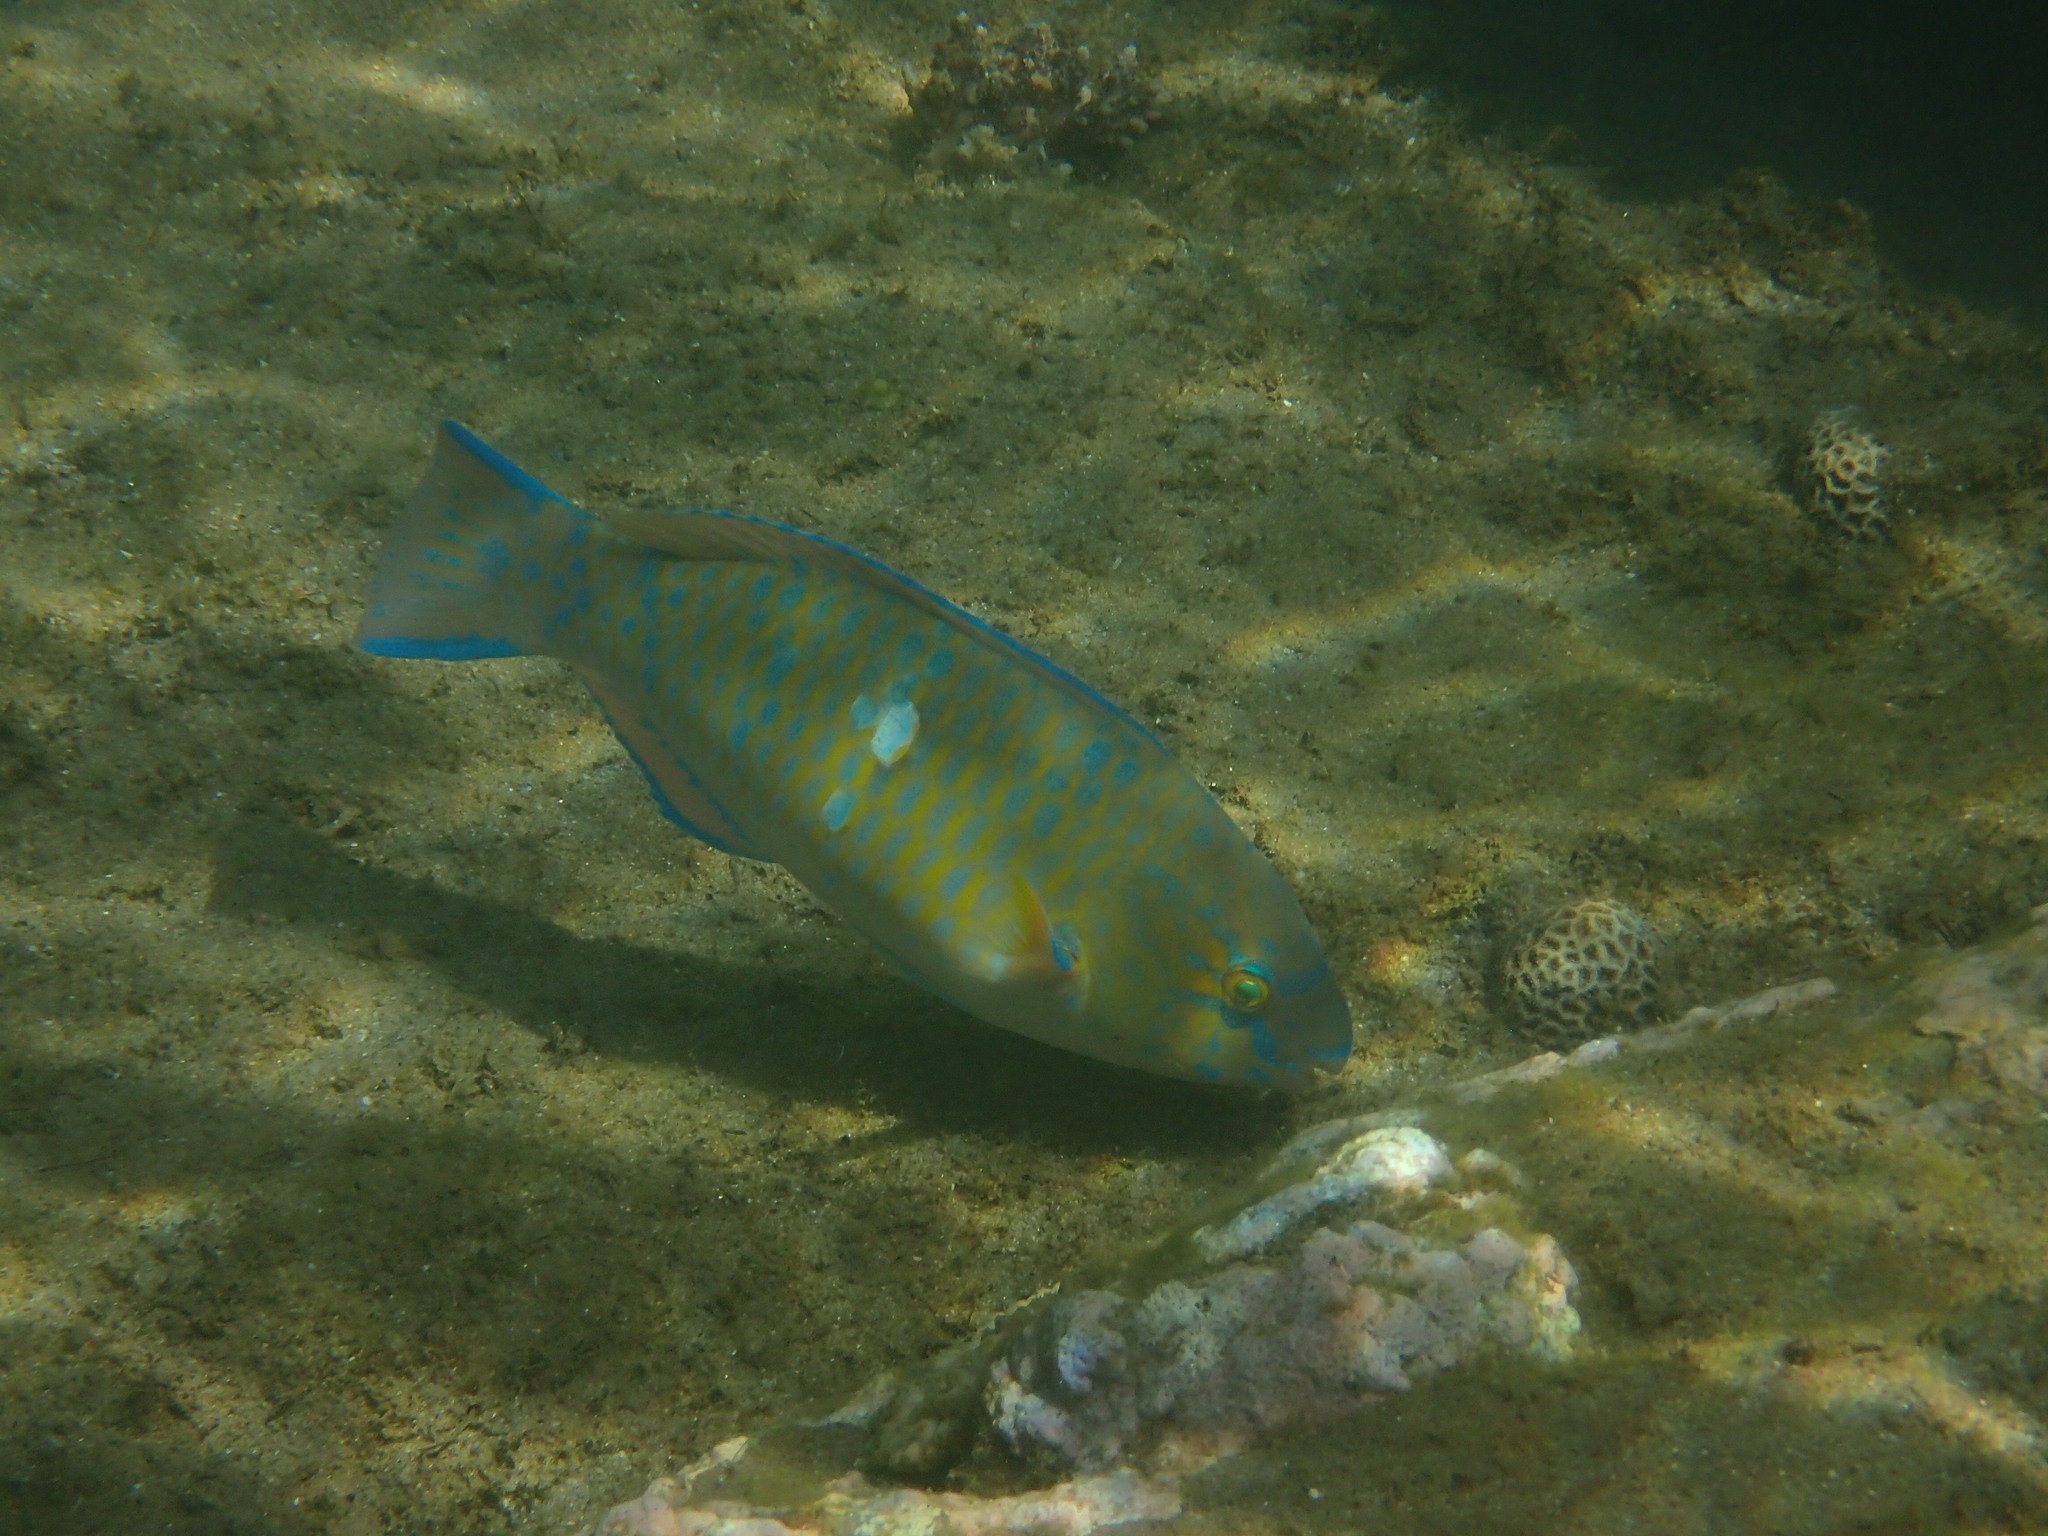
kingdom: Animalia
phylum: Chordata
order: Perciformes
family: Scaridae
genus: Scarus
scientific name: Scarus ghobban
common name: Blue-barred parrotfish
